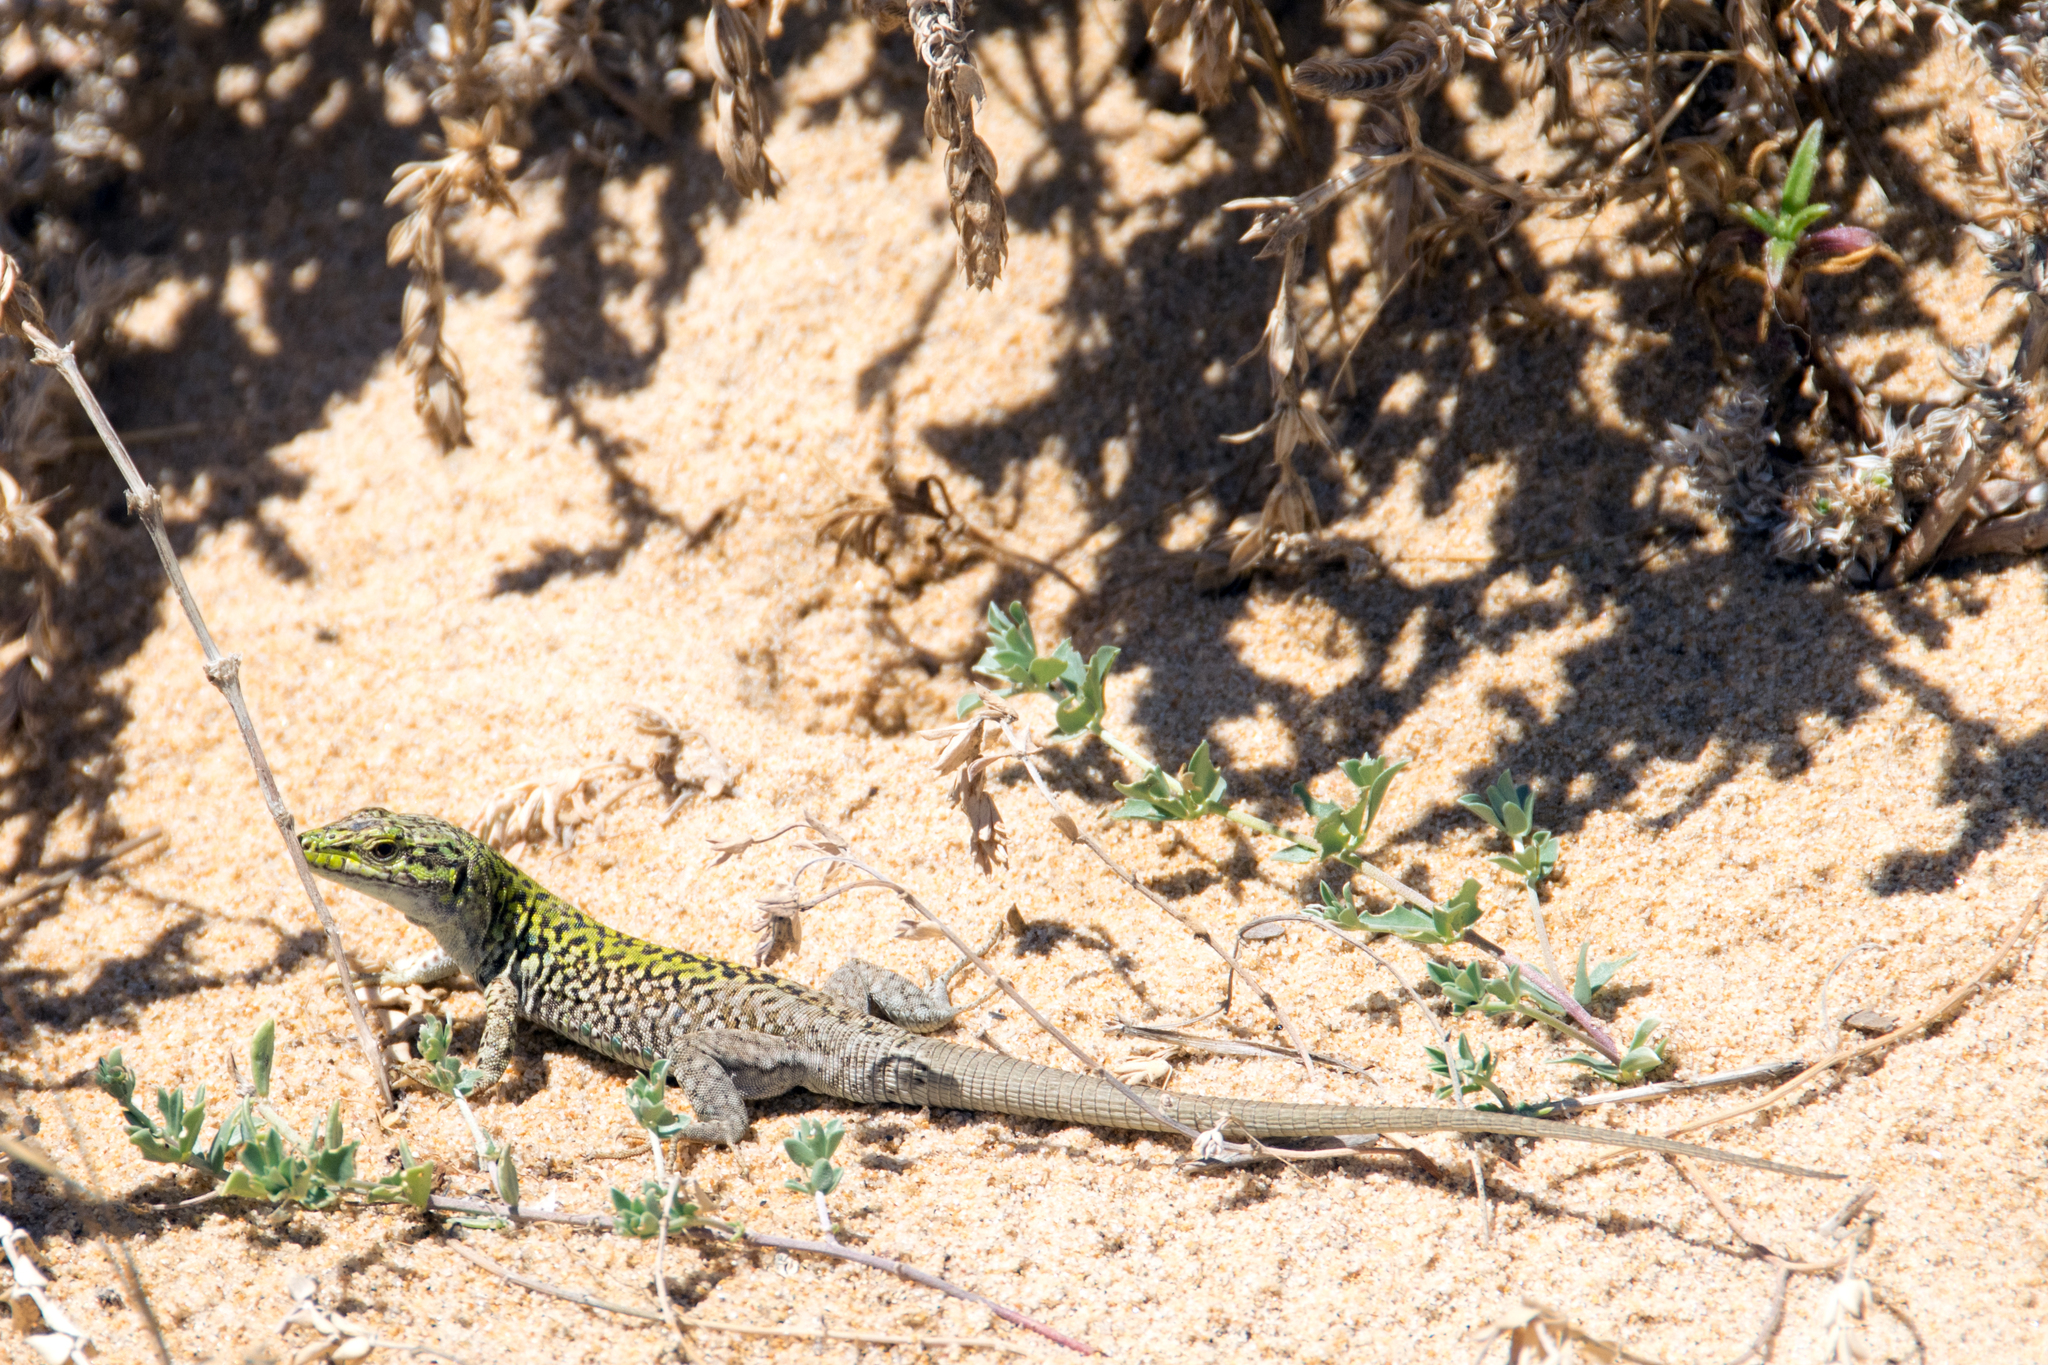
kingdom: Animalia
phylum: Chordata
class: Squamata
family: Lacertidae
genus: Podarcis
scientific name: Podarcis siculus
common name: Italian wall lizard
